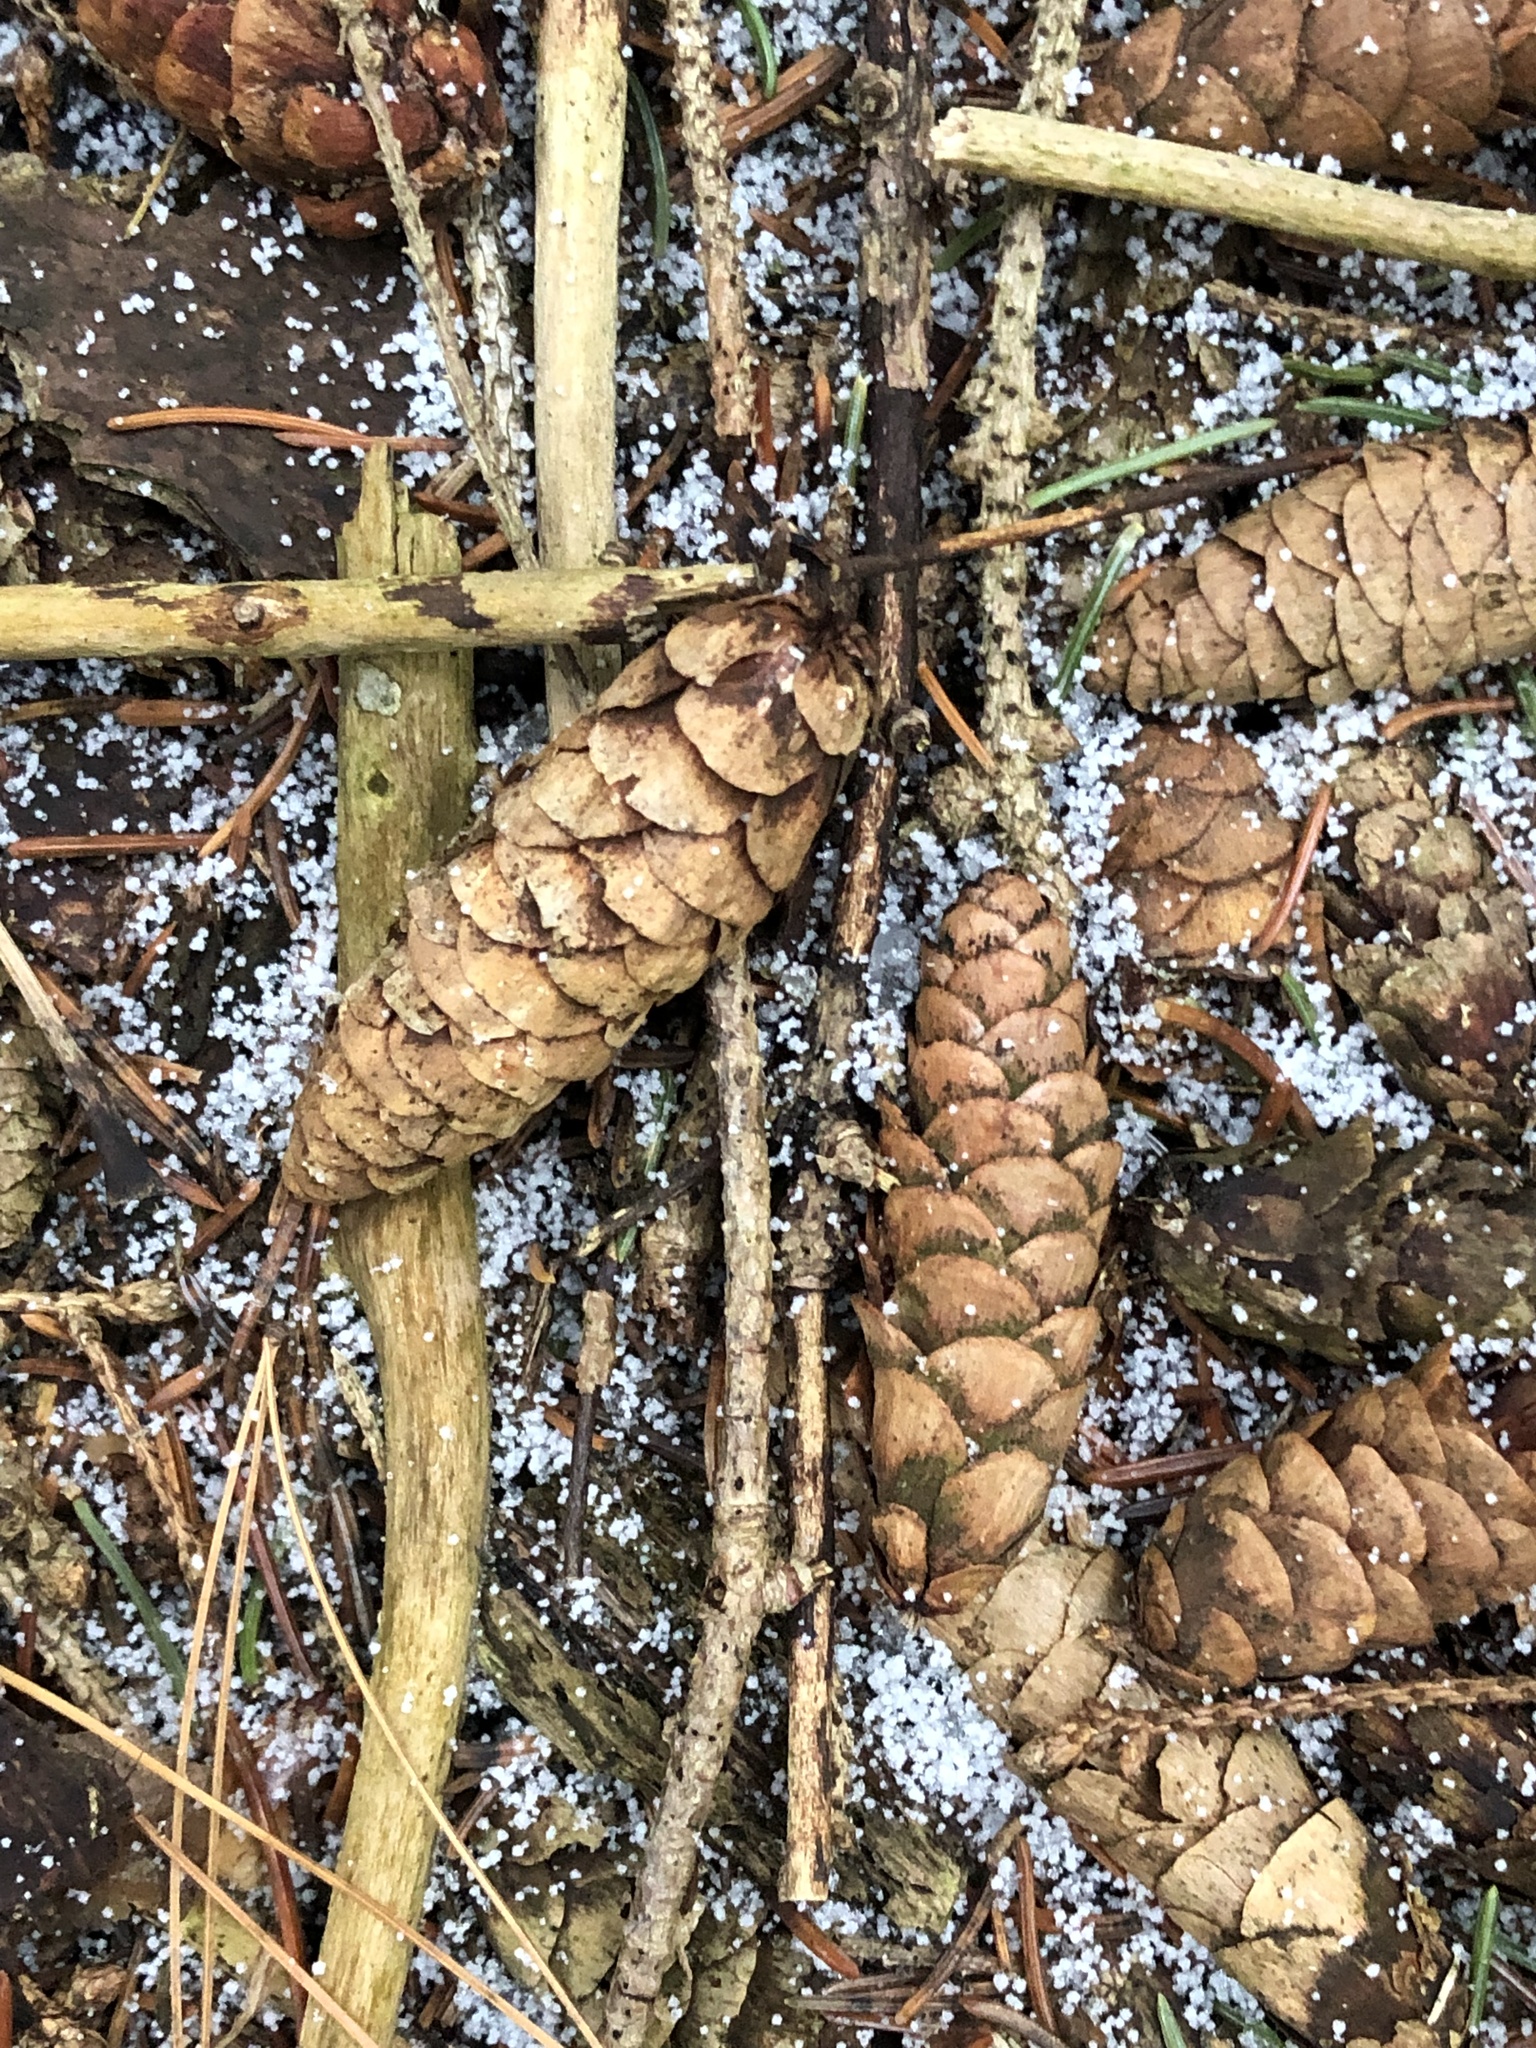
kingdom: Plantae
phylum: Tracheophyta
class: Pinopsida
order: Pinales
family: Pinaceae
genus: Picea
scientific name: Picea glauca
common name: White spruce
